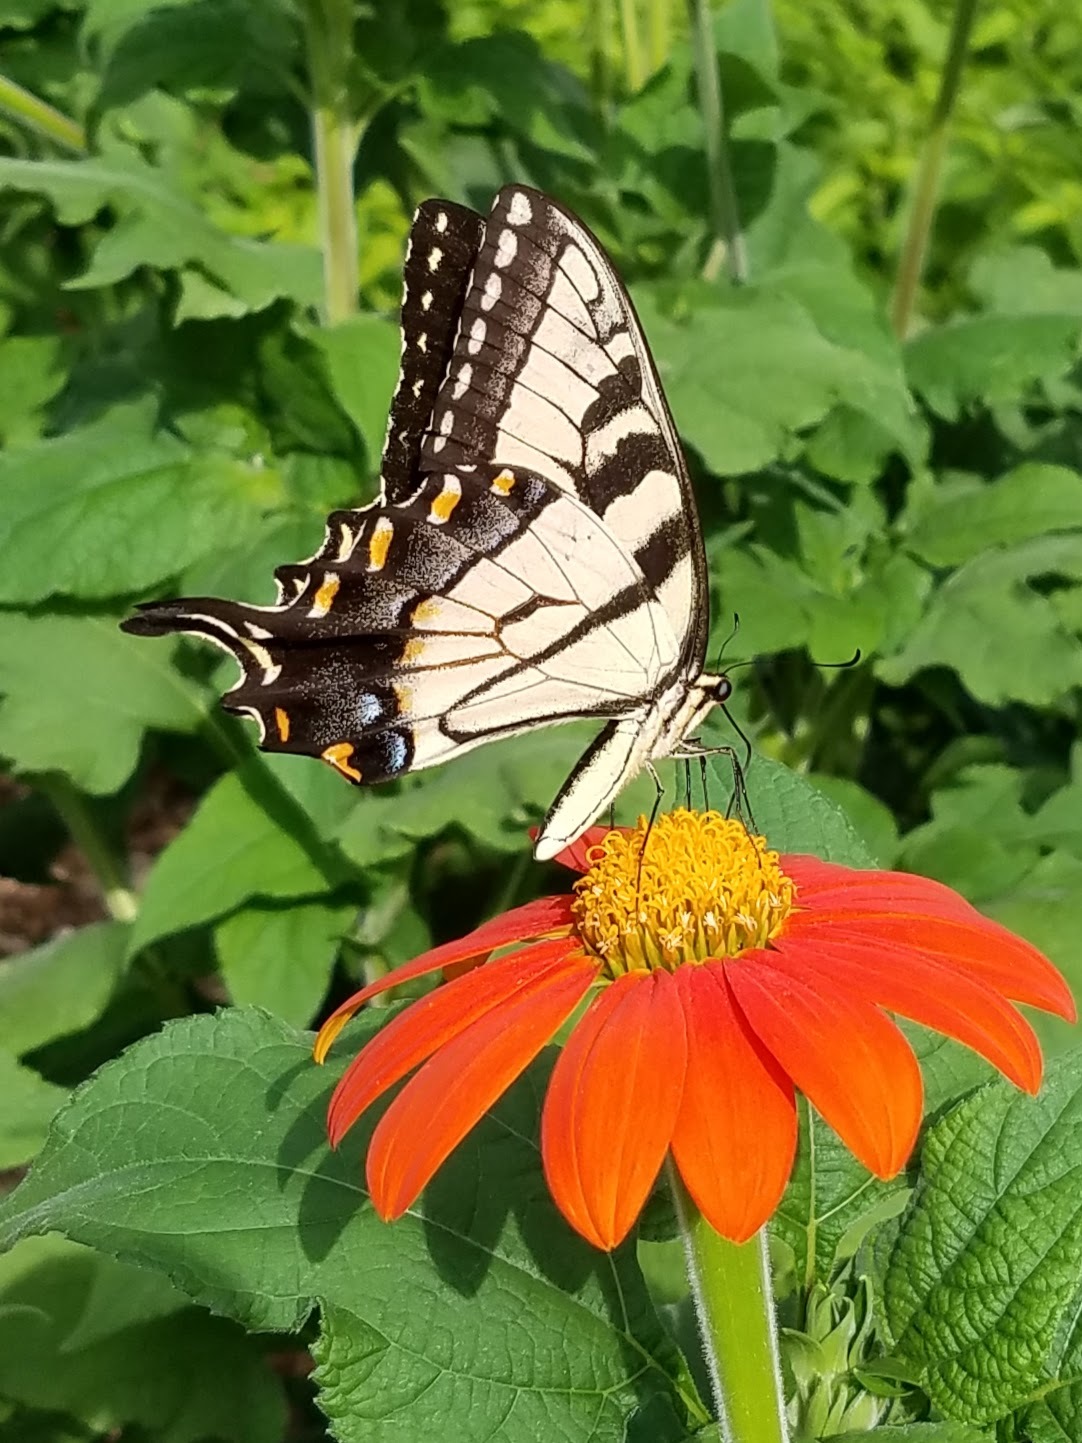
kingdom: Animalia
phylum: Arthropoda
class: Insecta
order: Lepidoptera
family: Papilionidae
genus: Papilio
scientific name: Papilio glaucus
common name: Tiger swallowtail
